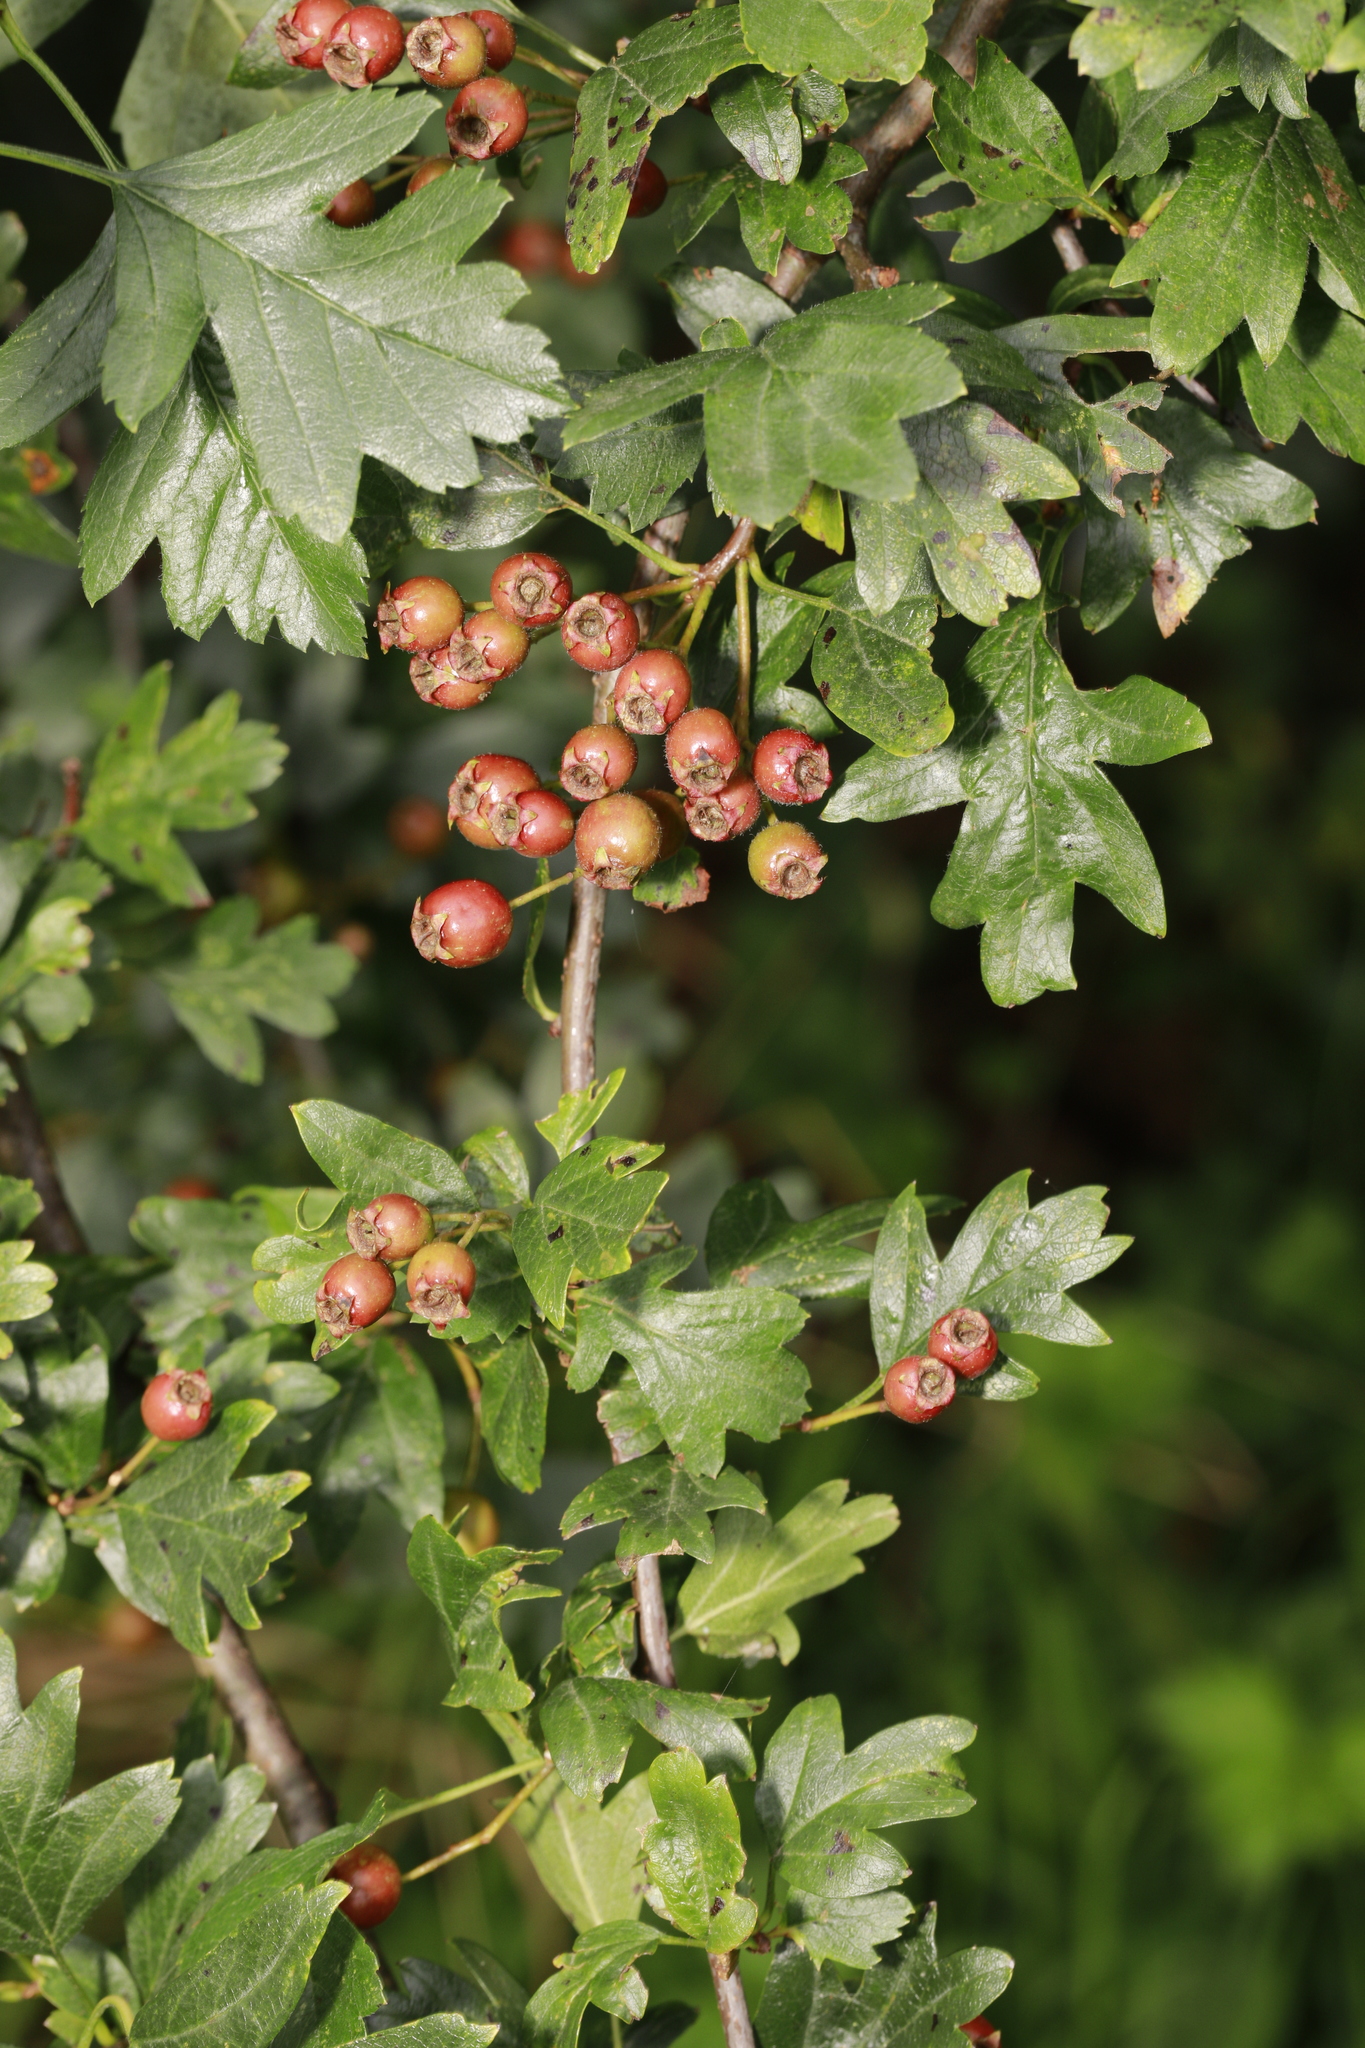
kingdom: Plantae
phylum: Tracheophyta
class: Magnoliopsida
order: Rosales
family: Rosaceae
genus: Crataegus
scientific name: Crataegus monogyna
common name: Hawthorn
